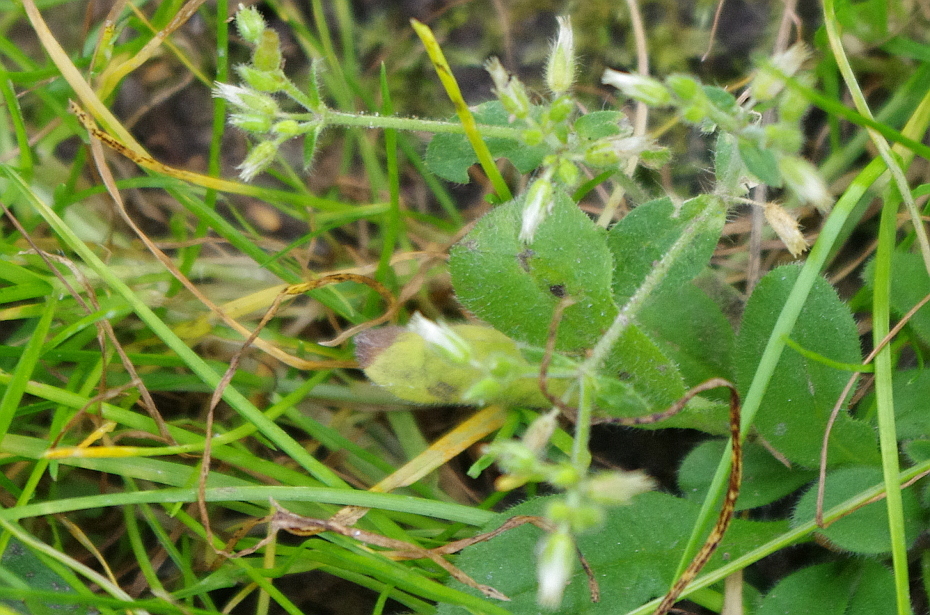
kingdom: Plantae
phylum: Tracheophyta
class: Magnoliopsida
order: Caryophyllales
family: Caryophyllaceae
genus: Cerastium
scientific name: Cerastium holosteoides
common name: Big chickweed
